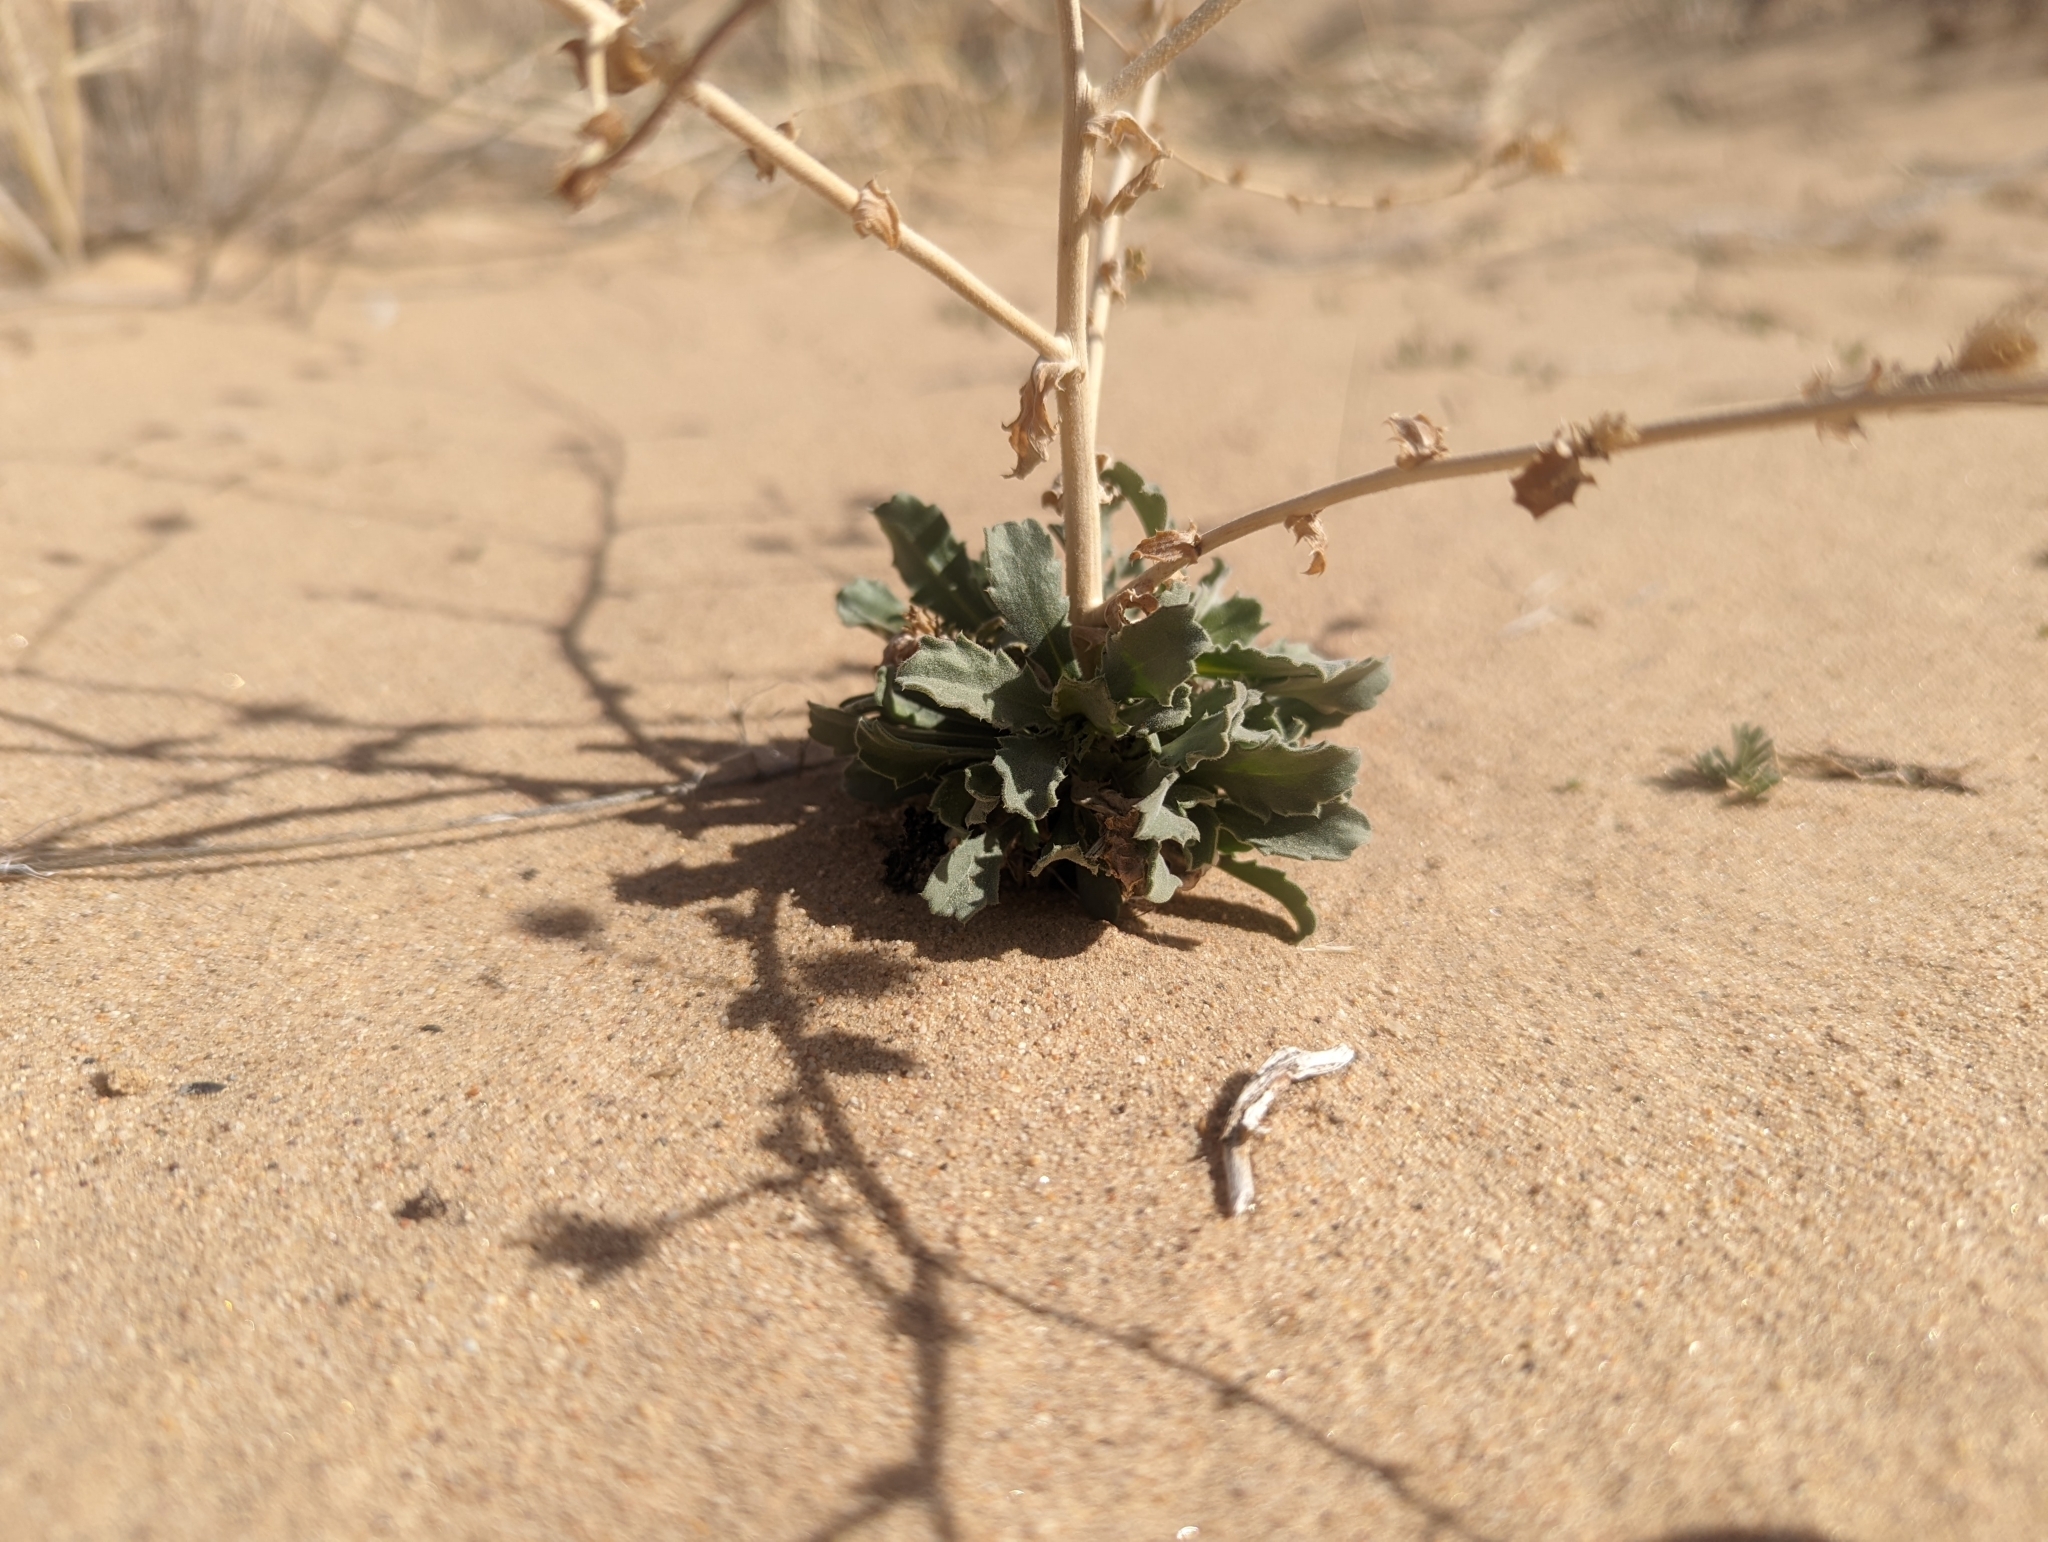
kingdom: Plantae
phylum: Tracheophyta
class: Magnoliopsida
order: Asterales
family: Asteraceae
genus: Dieteria
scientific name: Dieteria canescens
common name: Hoary-aster
